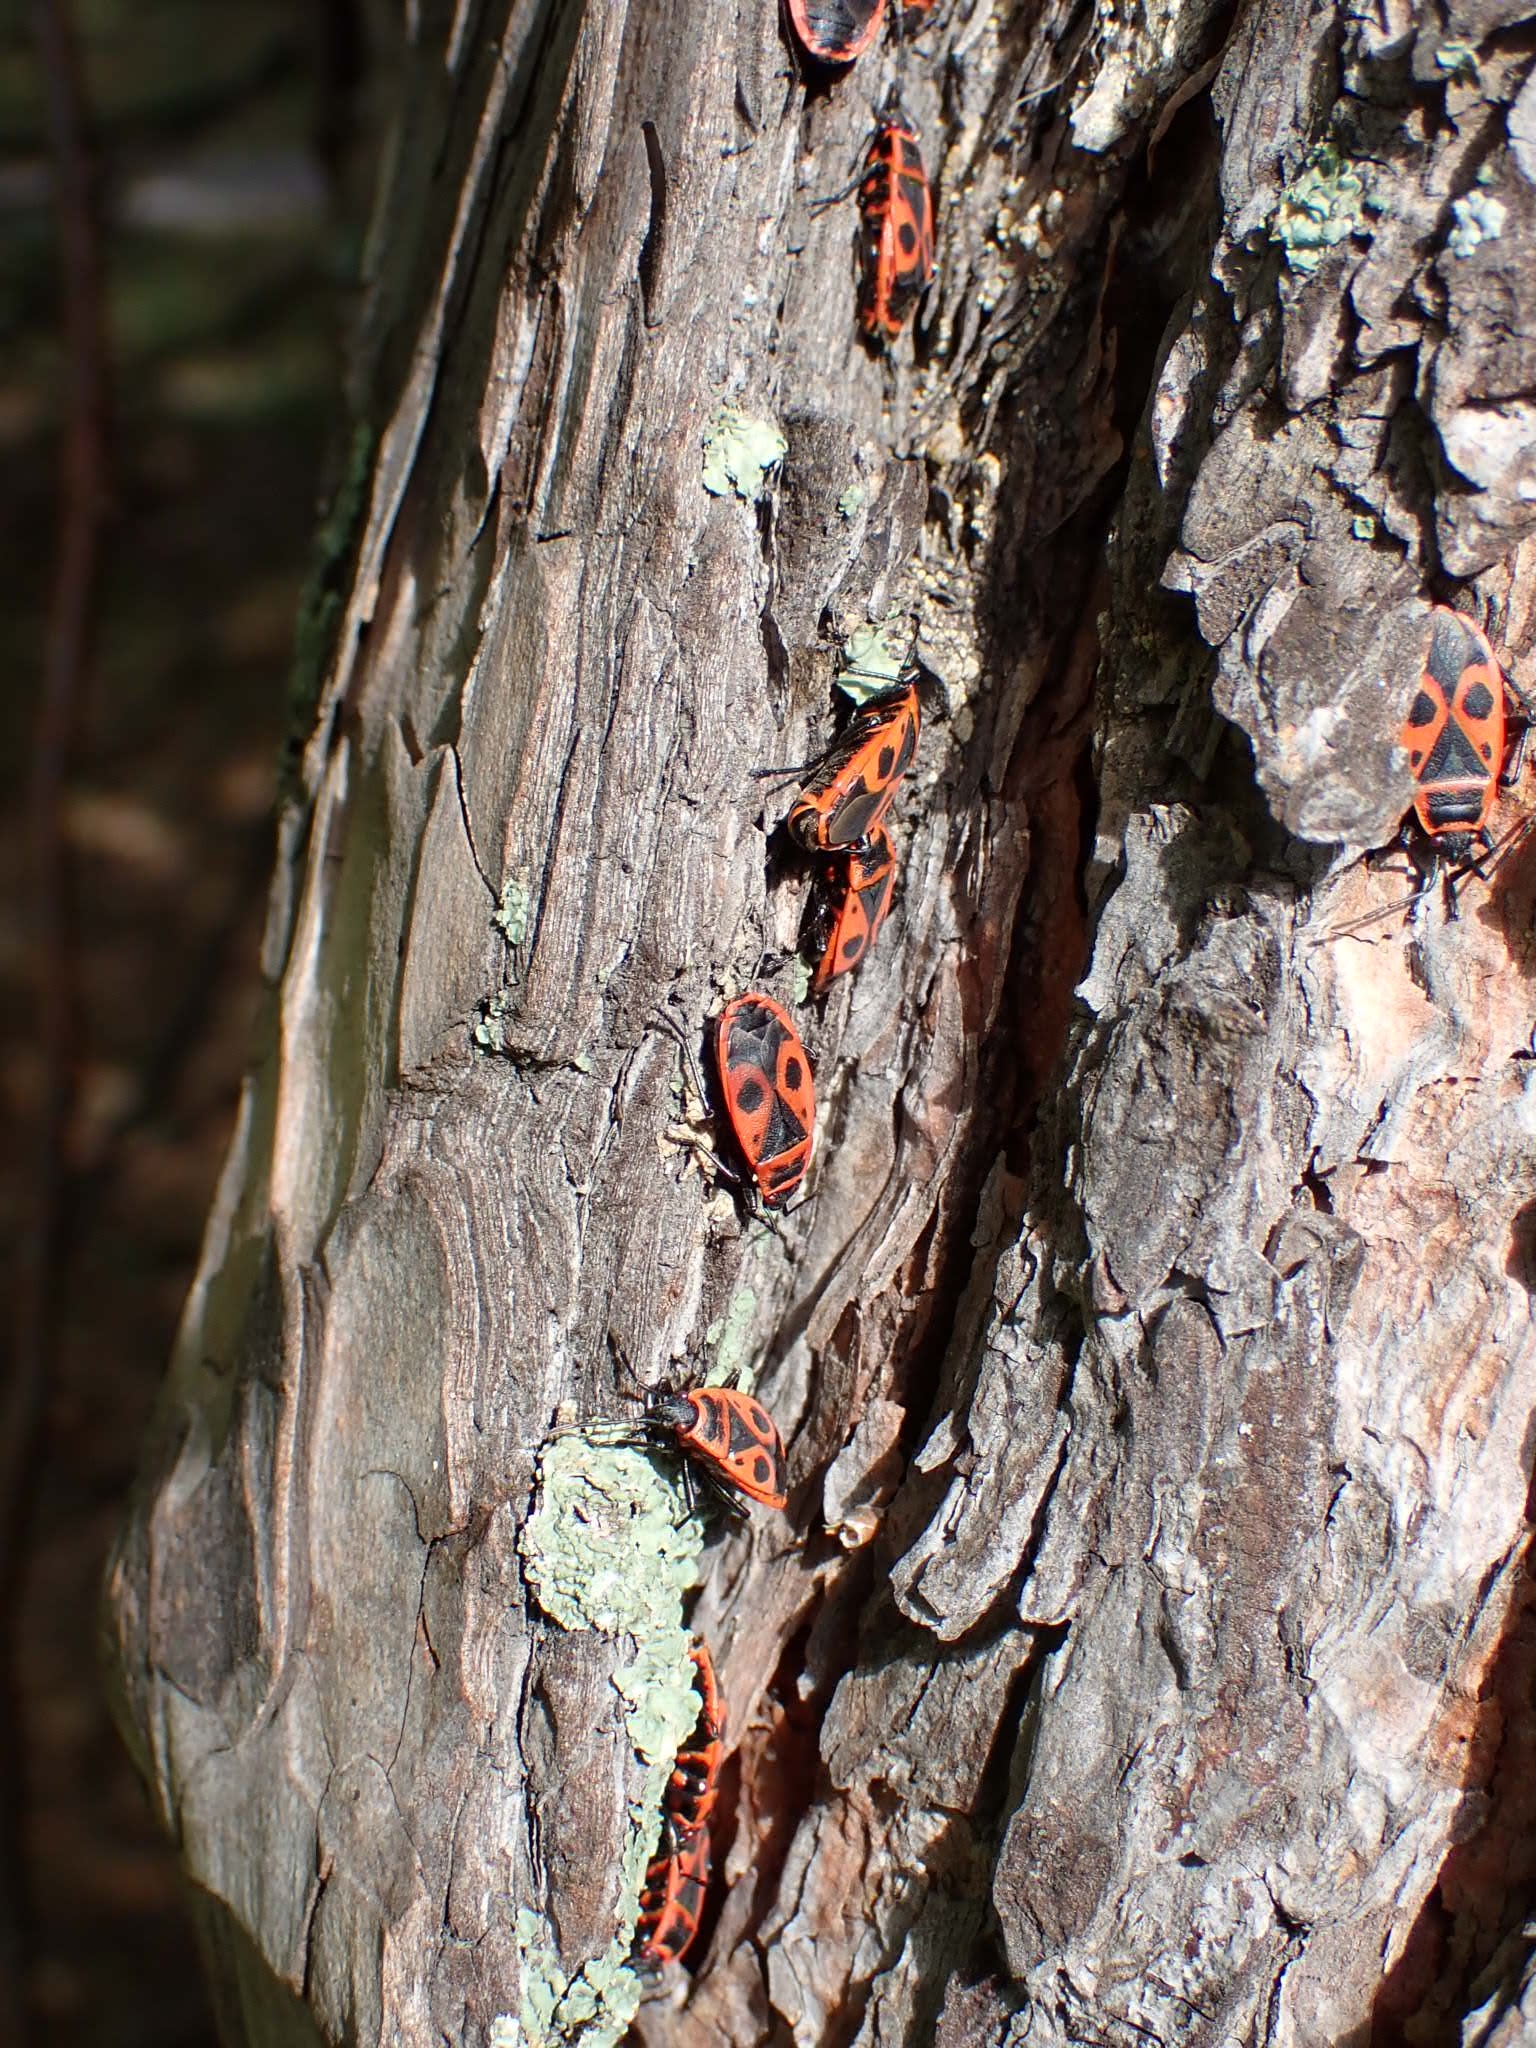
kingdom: Animalia
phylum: Arthropoda
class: Insecta
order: Hemiptera
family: Pyrrhocoridae
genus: Pyrrhocoris
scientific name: Pyrrhocoris apterus
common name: Firebug
